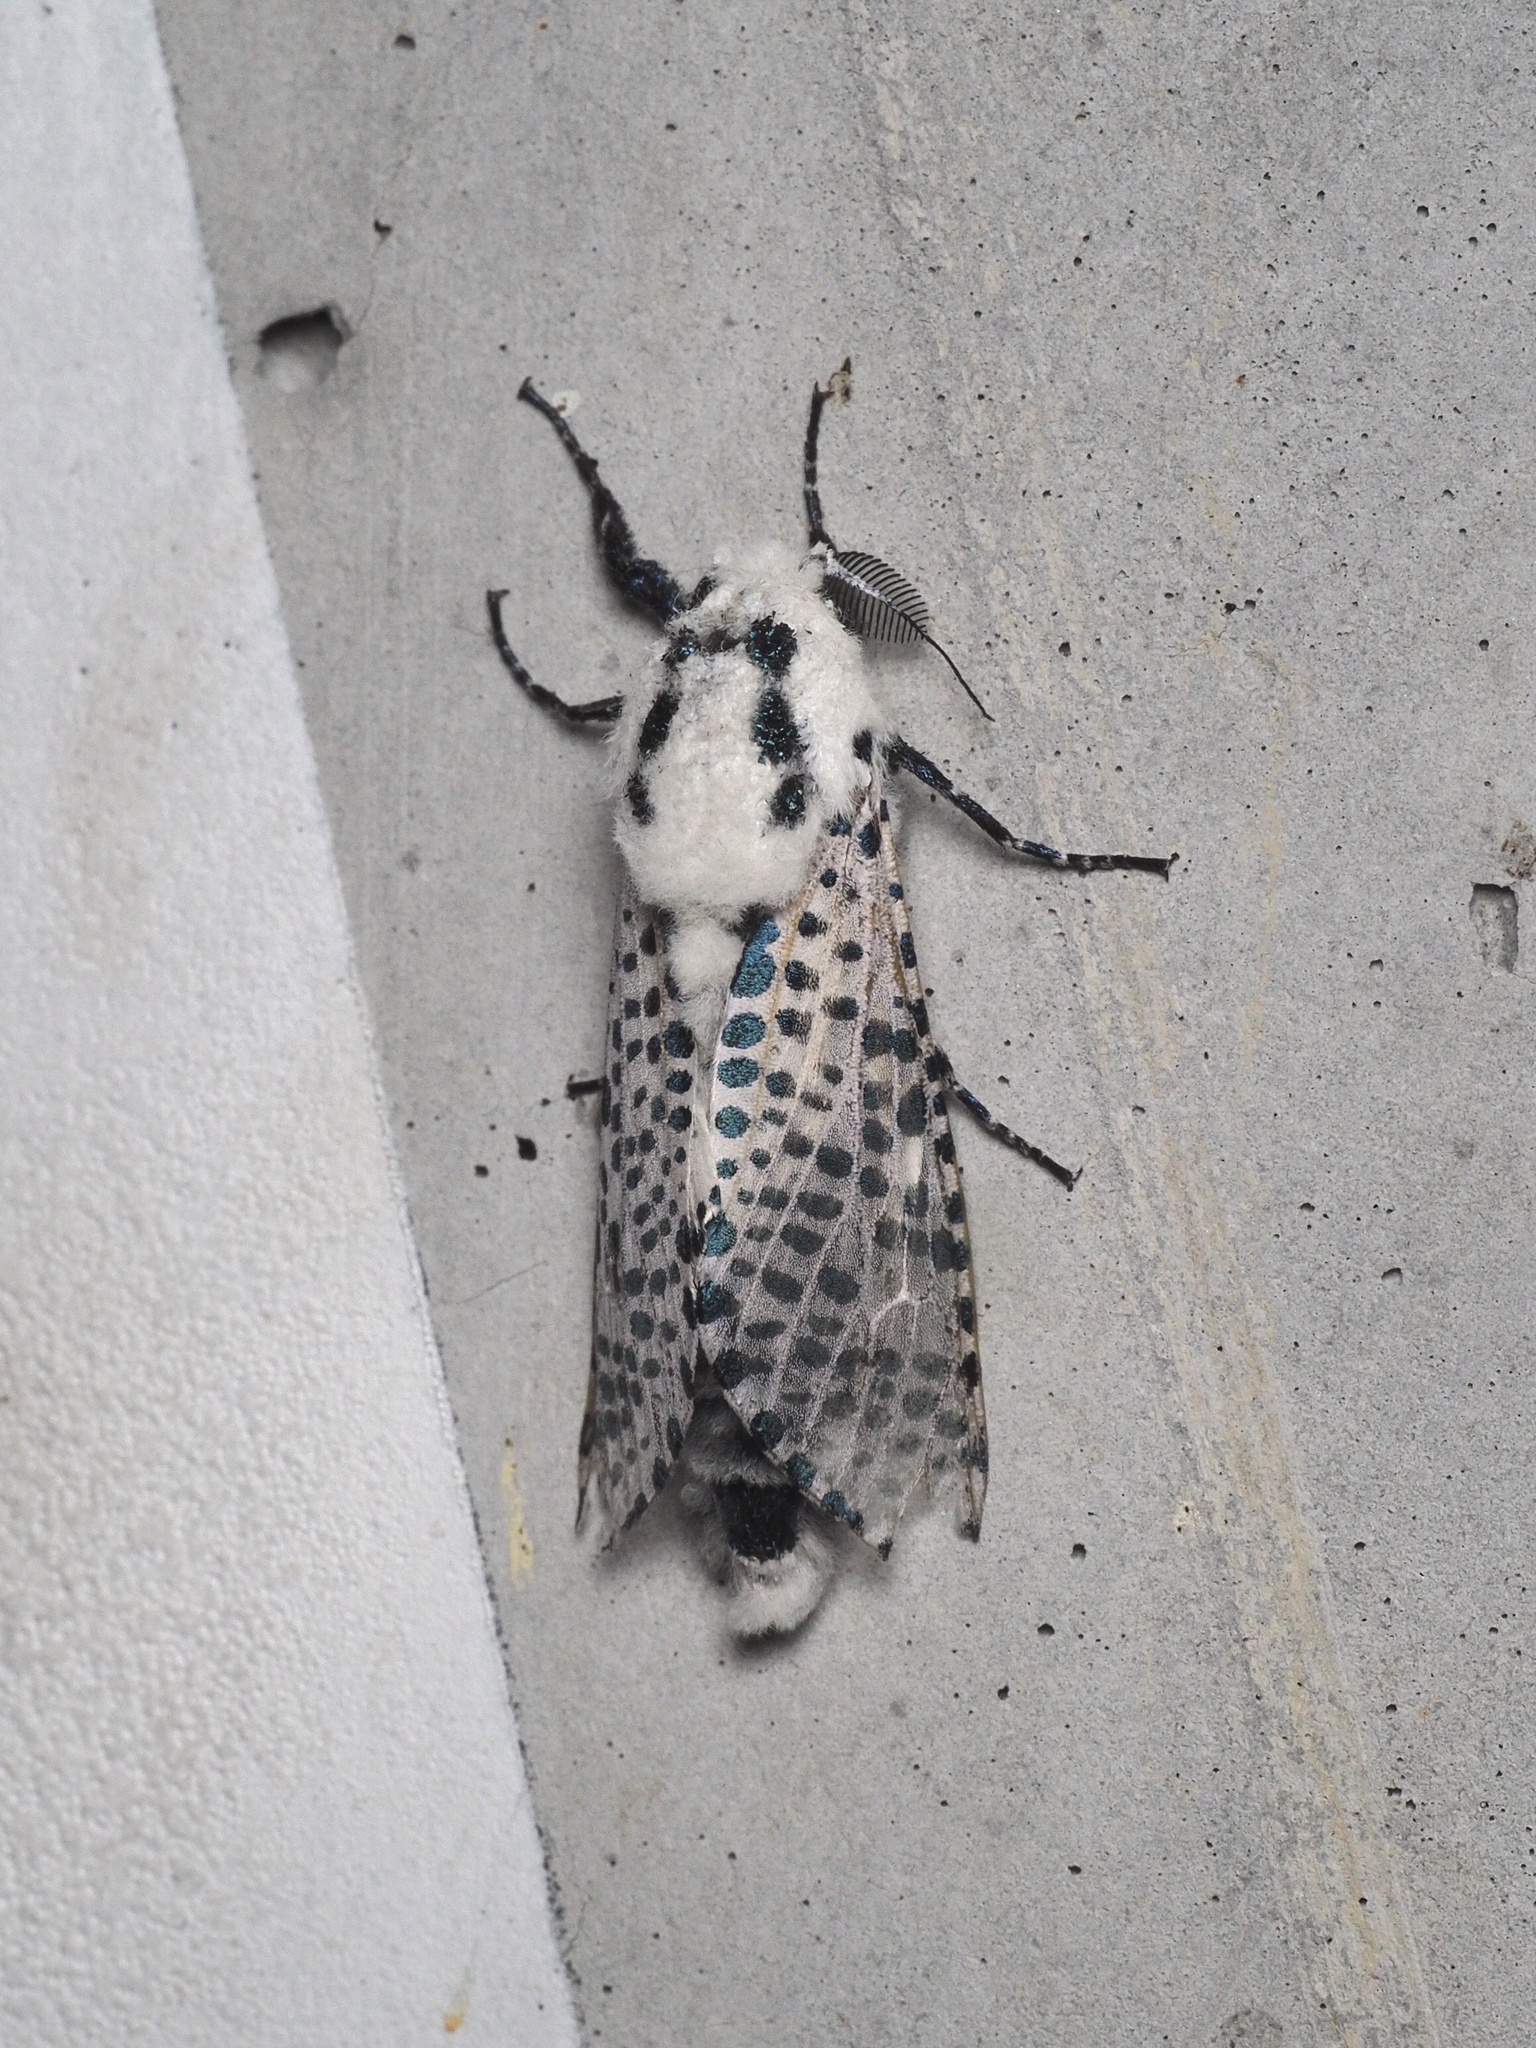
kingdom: Animalia
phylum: Arthropoda
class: Insecta
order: Lepidoptera
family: Cossidae
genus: Zeuzera
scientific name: Zeuzera pyrina
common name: Leopard moth
